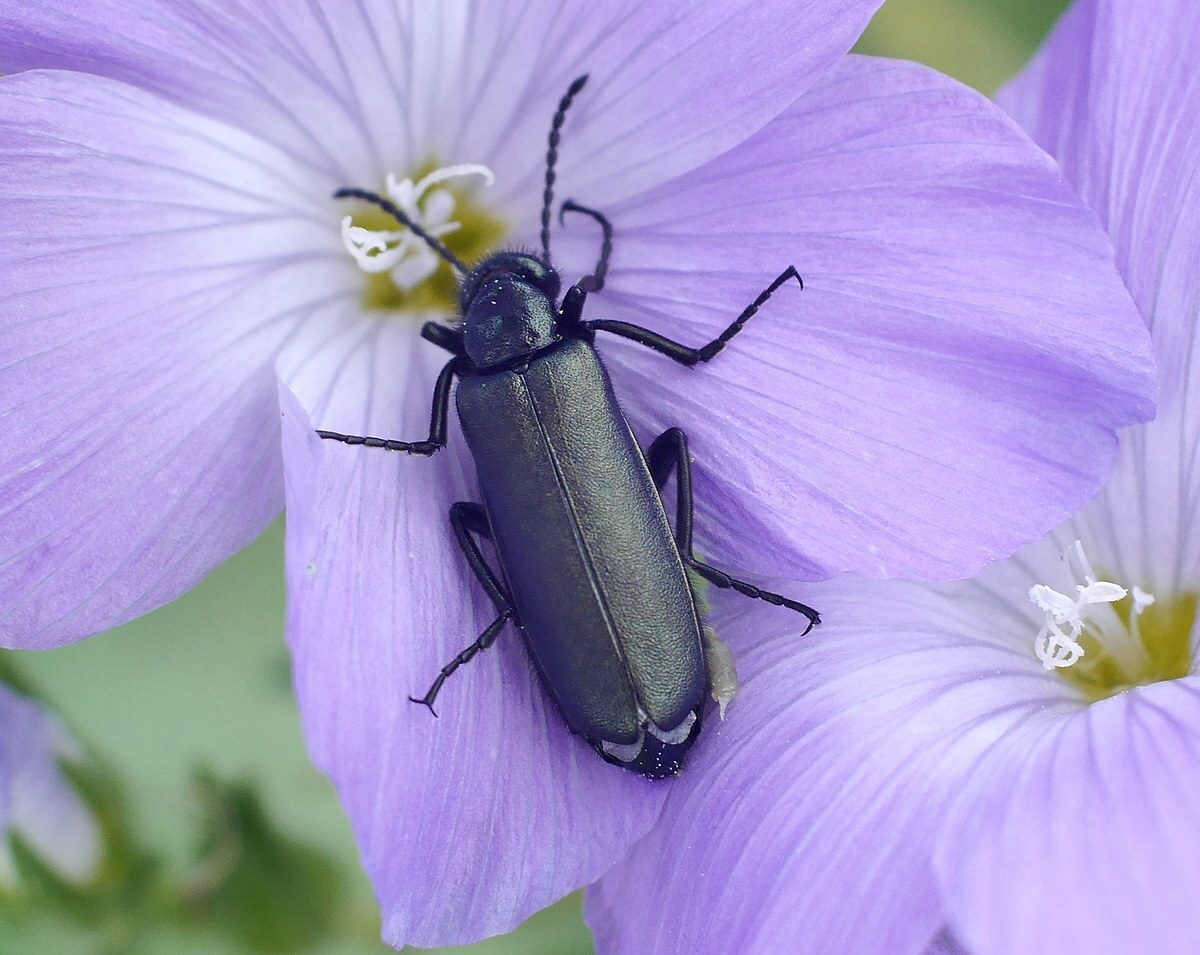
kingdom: Animalia
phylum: Arthropoda
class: Insecta
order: Coleoptera
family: Meloidae
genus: Alosimus
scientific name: Alosimus chalybaeus
